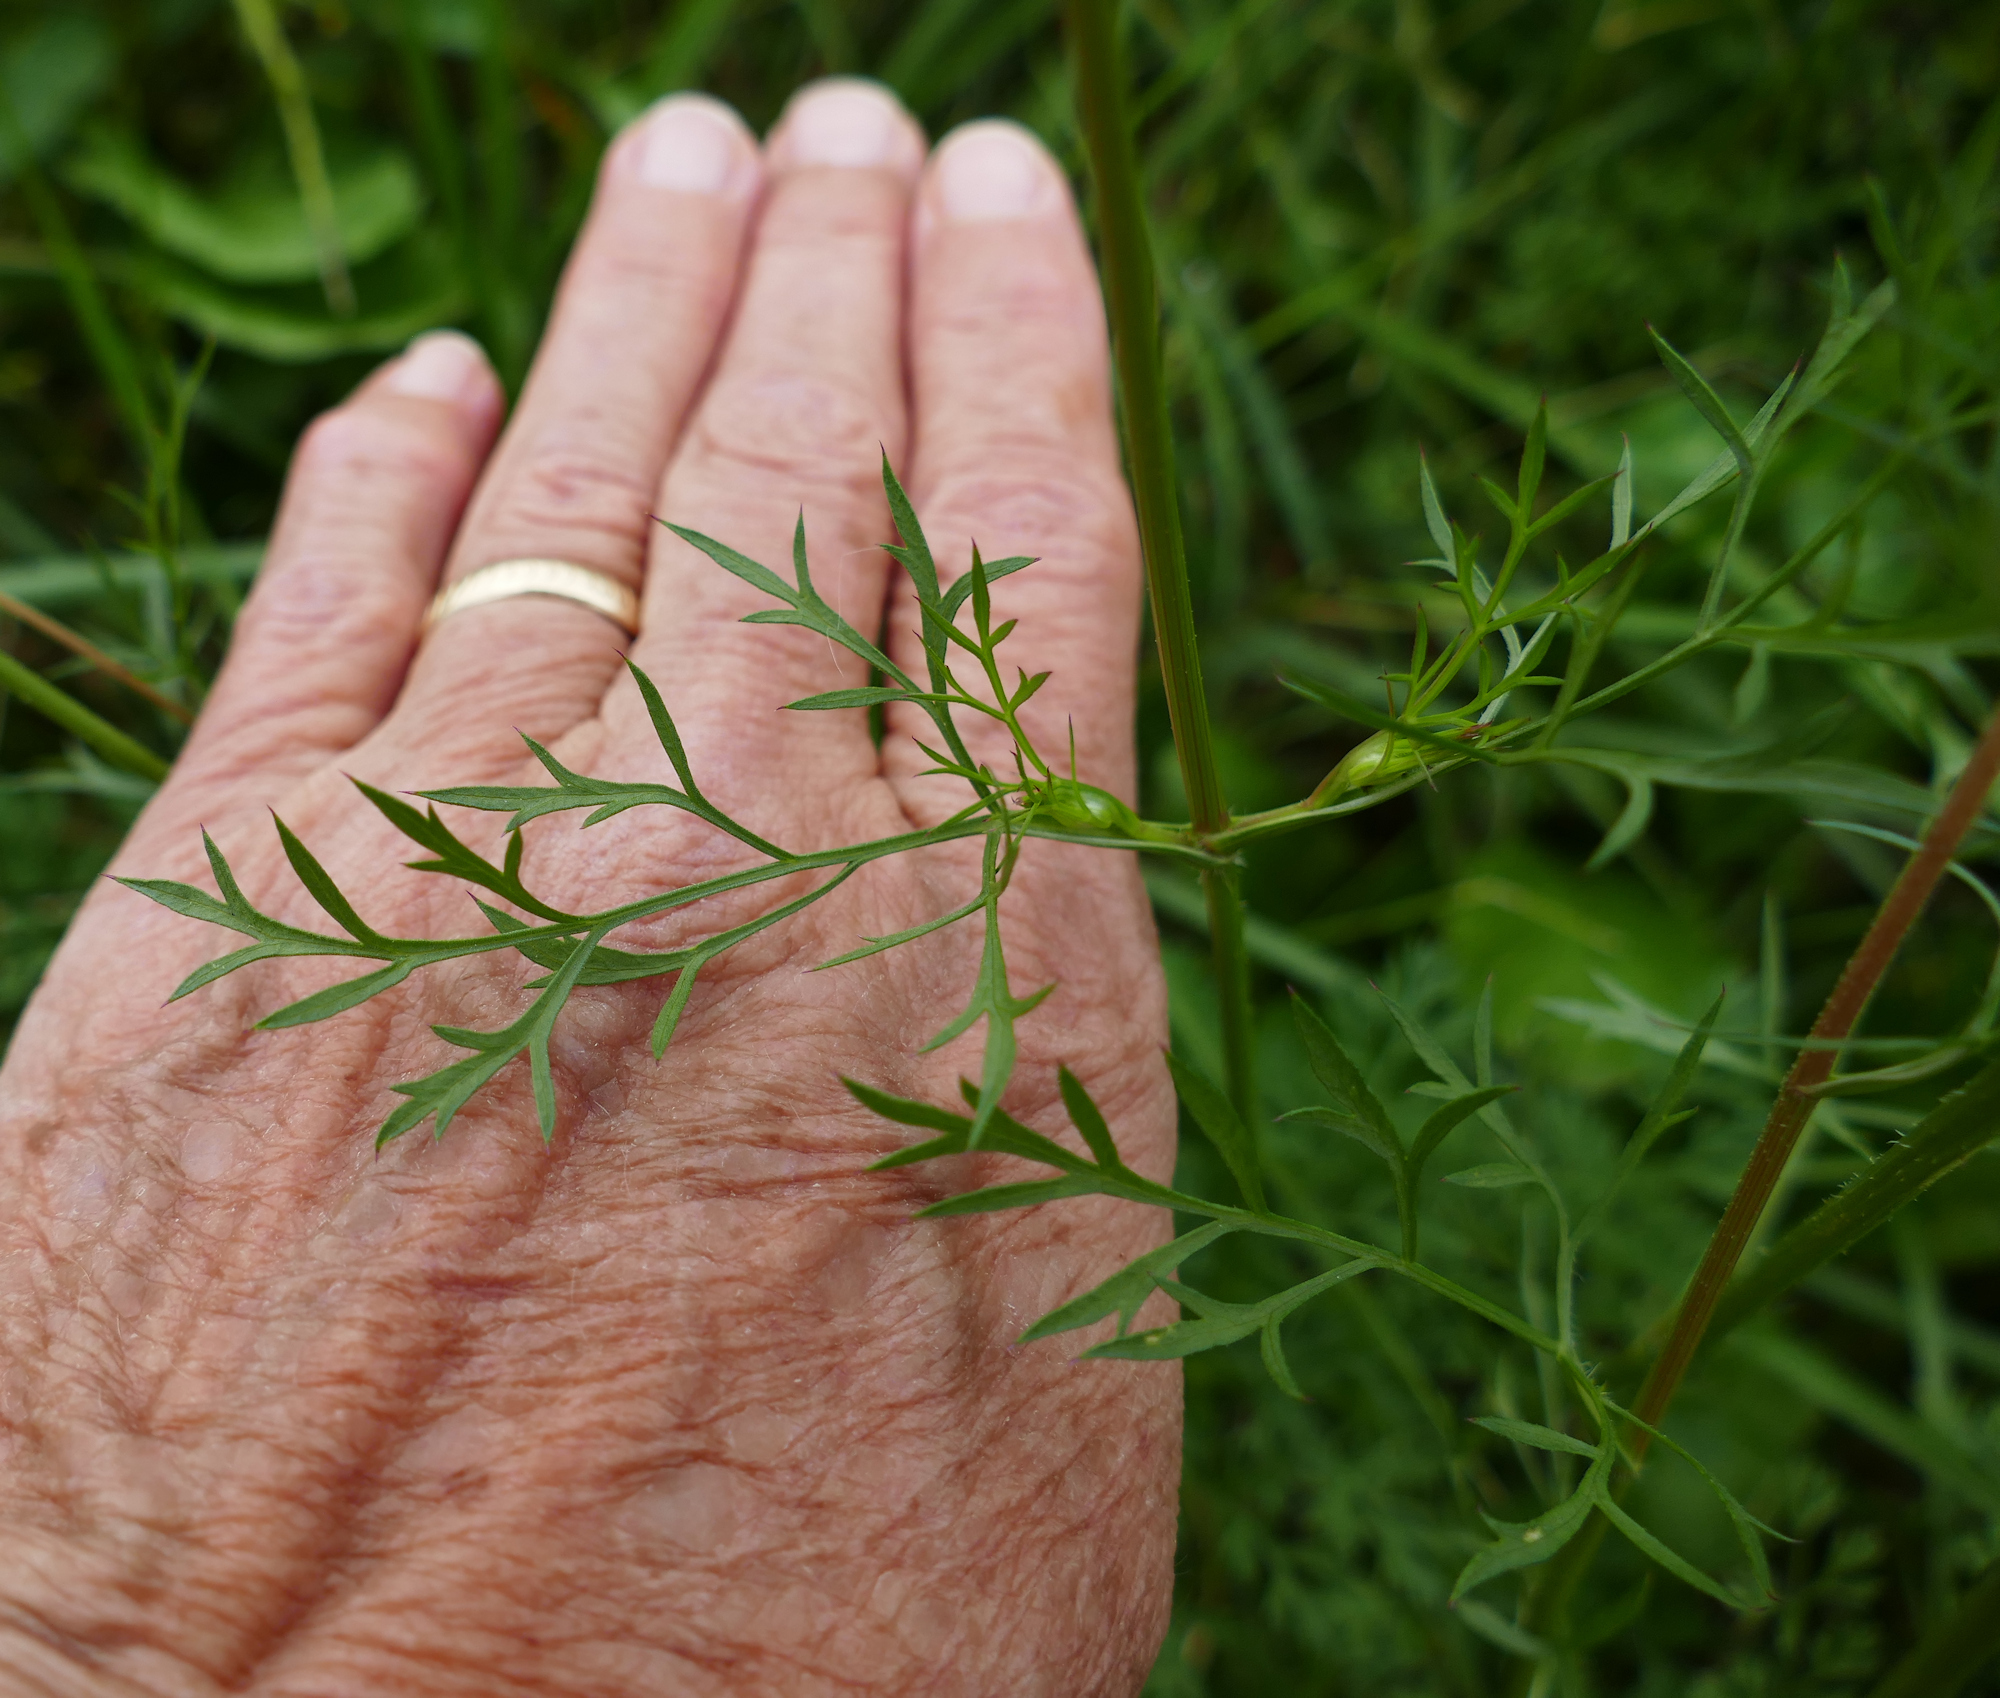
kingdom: Plantae
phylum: Tracheophyta
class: Magnoliopsida
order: Apiales
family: Apiaceae
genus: Daucus
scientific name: Daucus carota
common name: Wild carrot
